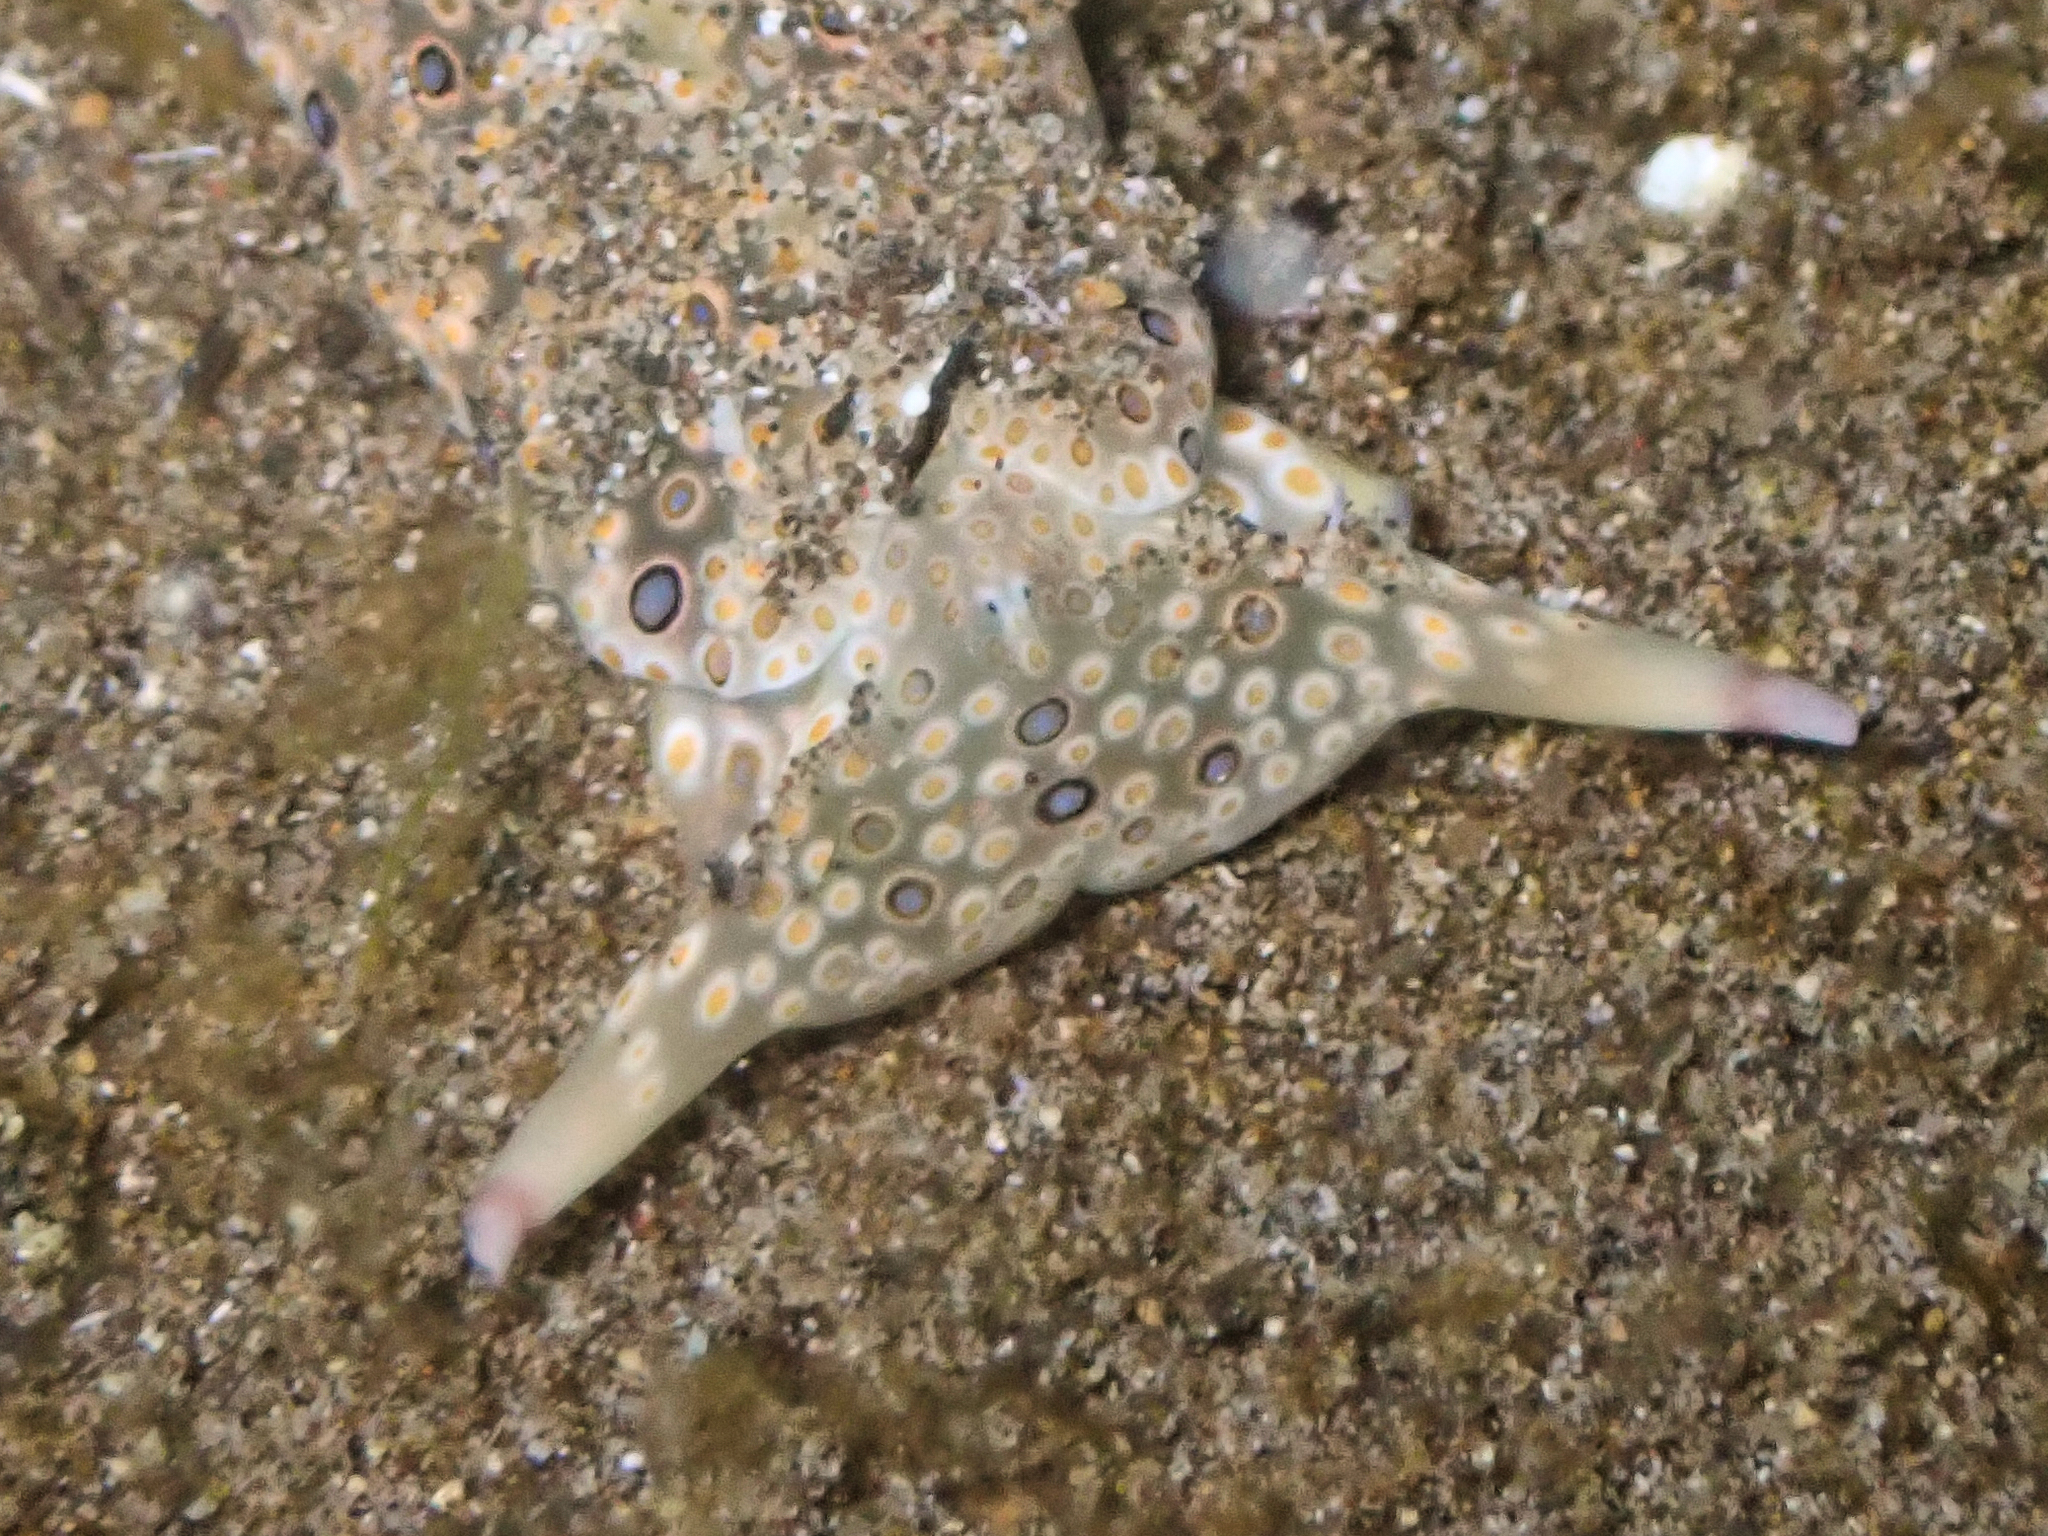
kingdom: Animalia
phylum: Mollusca
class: Gastropoda
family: Plakobranchidae
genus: Plakobranchus
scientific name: Plakobranchus ocellatus
